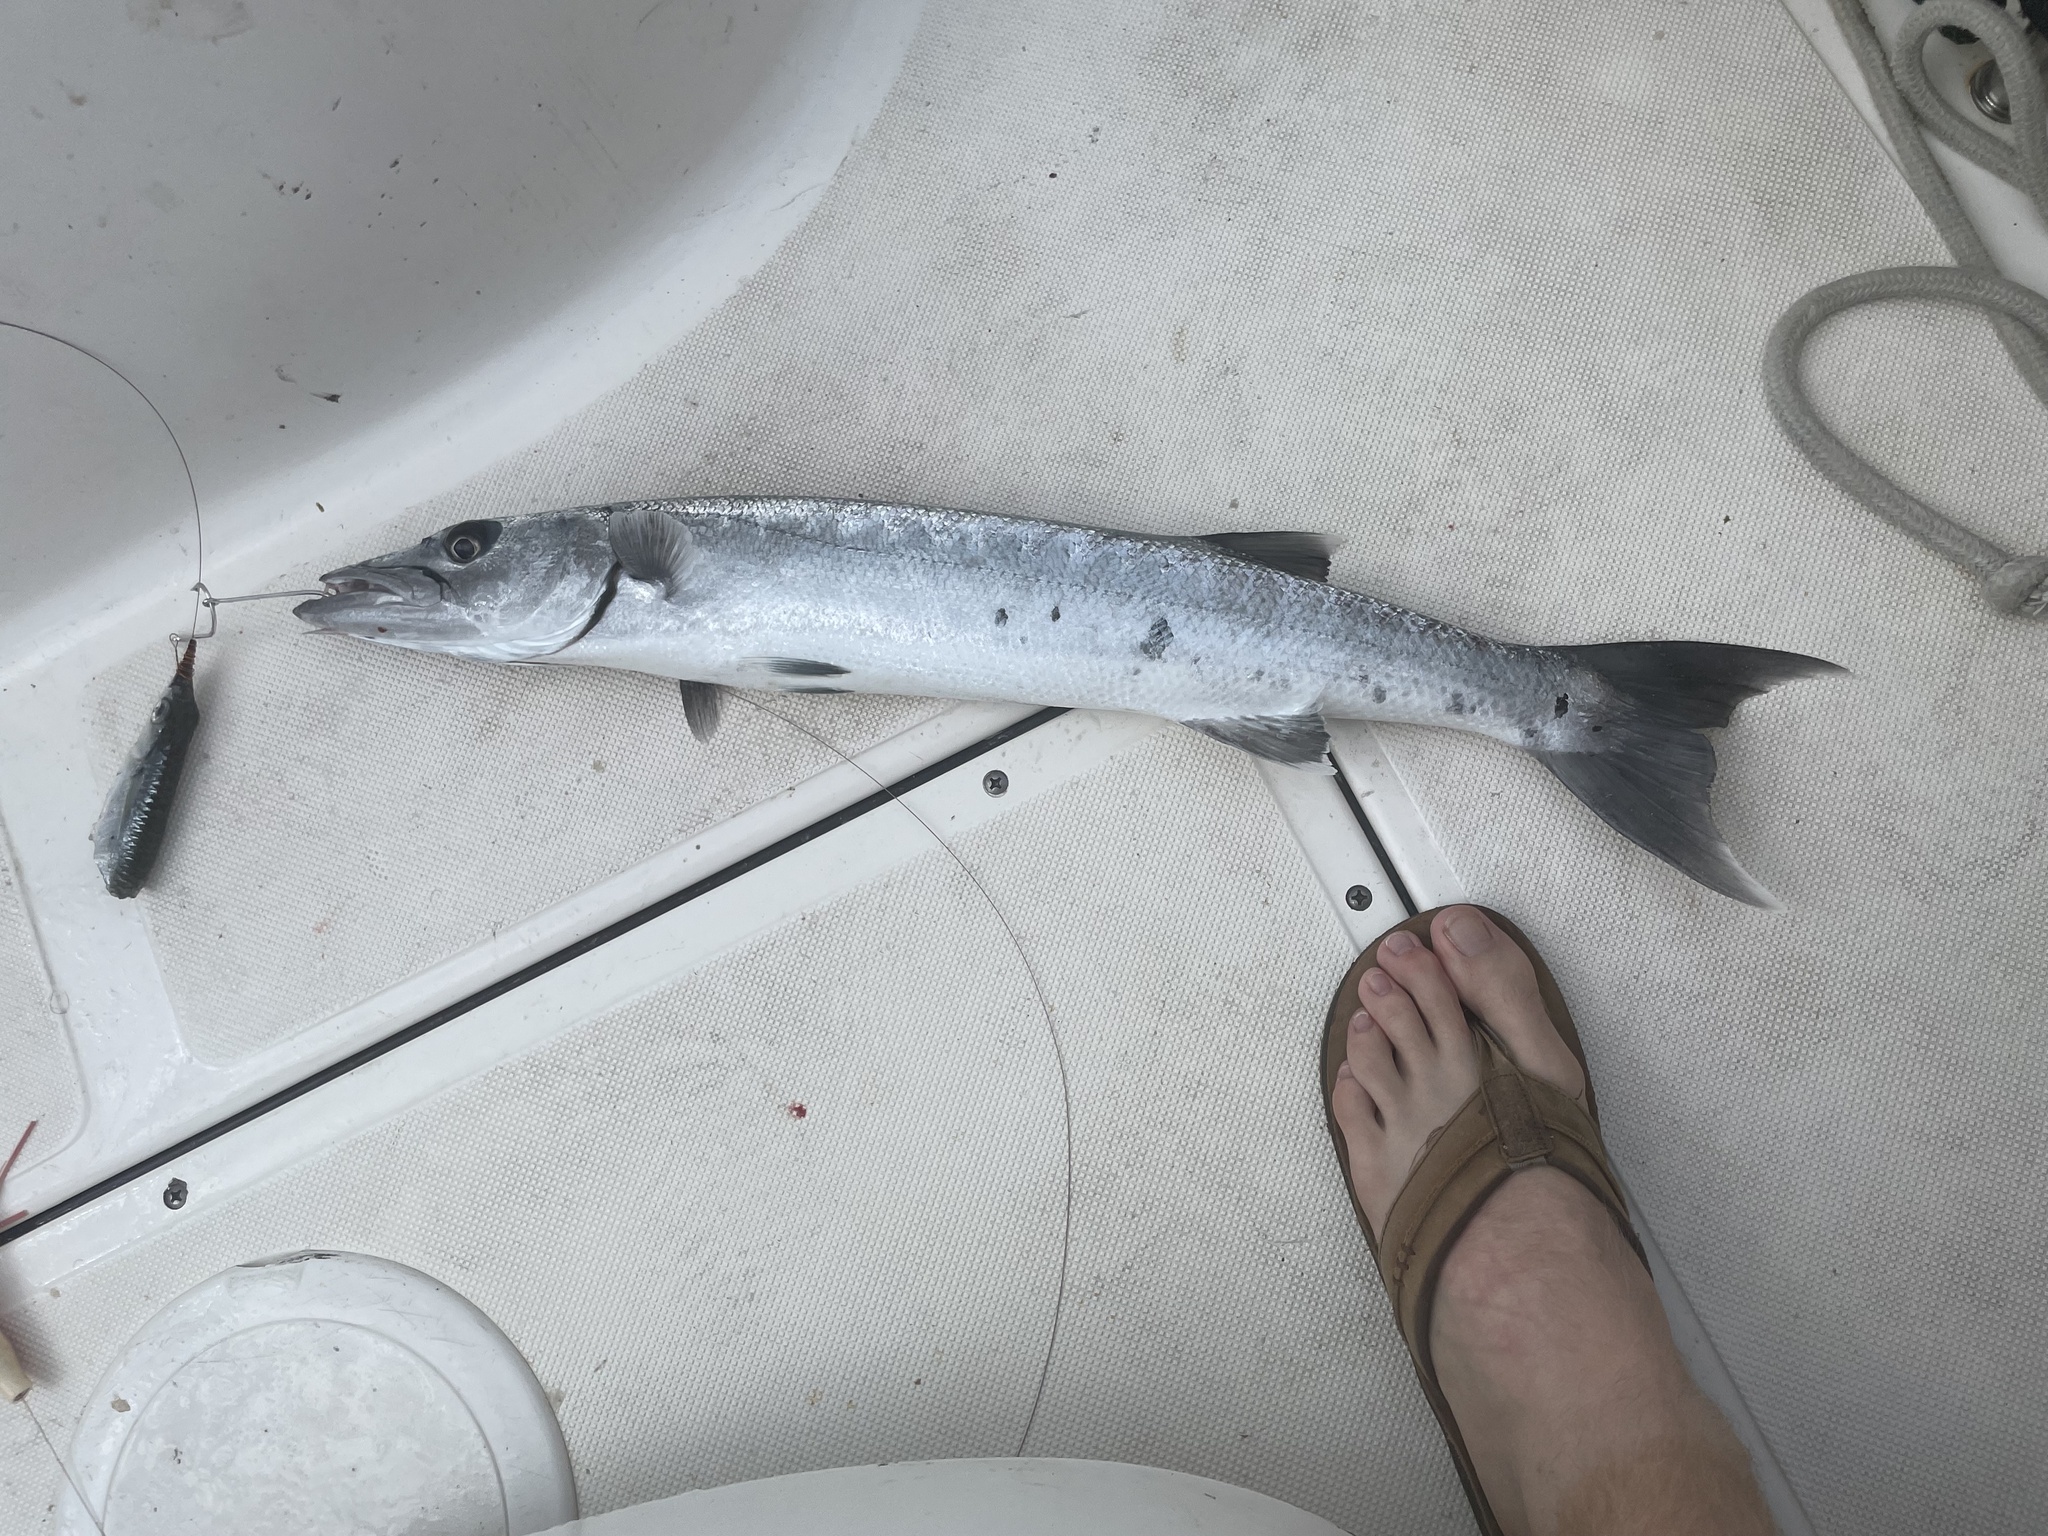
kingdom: Animalia
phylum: Chordata
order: Perciformes
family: Sphyraenidae
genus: Sphyraena
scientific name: Sphyraena barracuda
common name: Great barracuda
